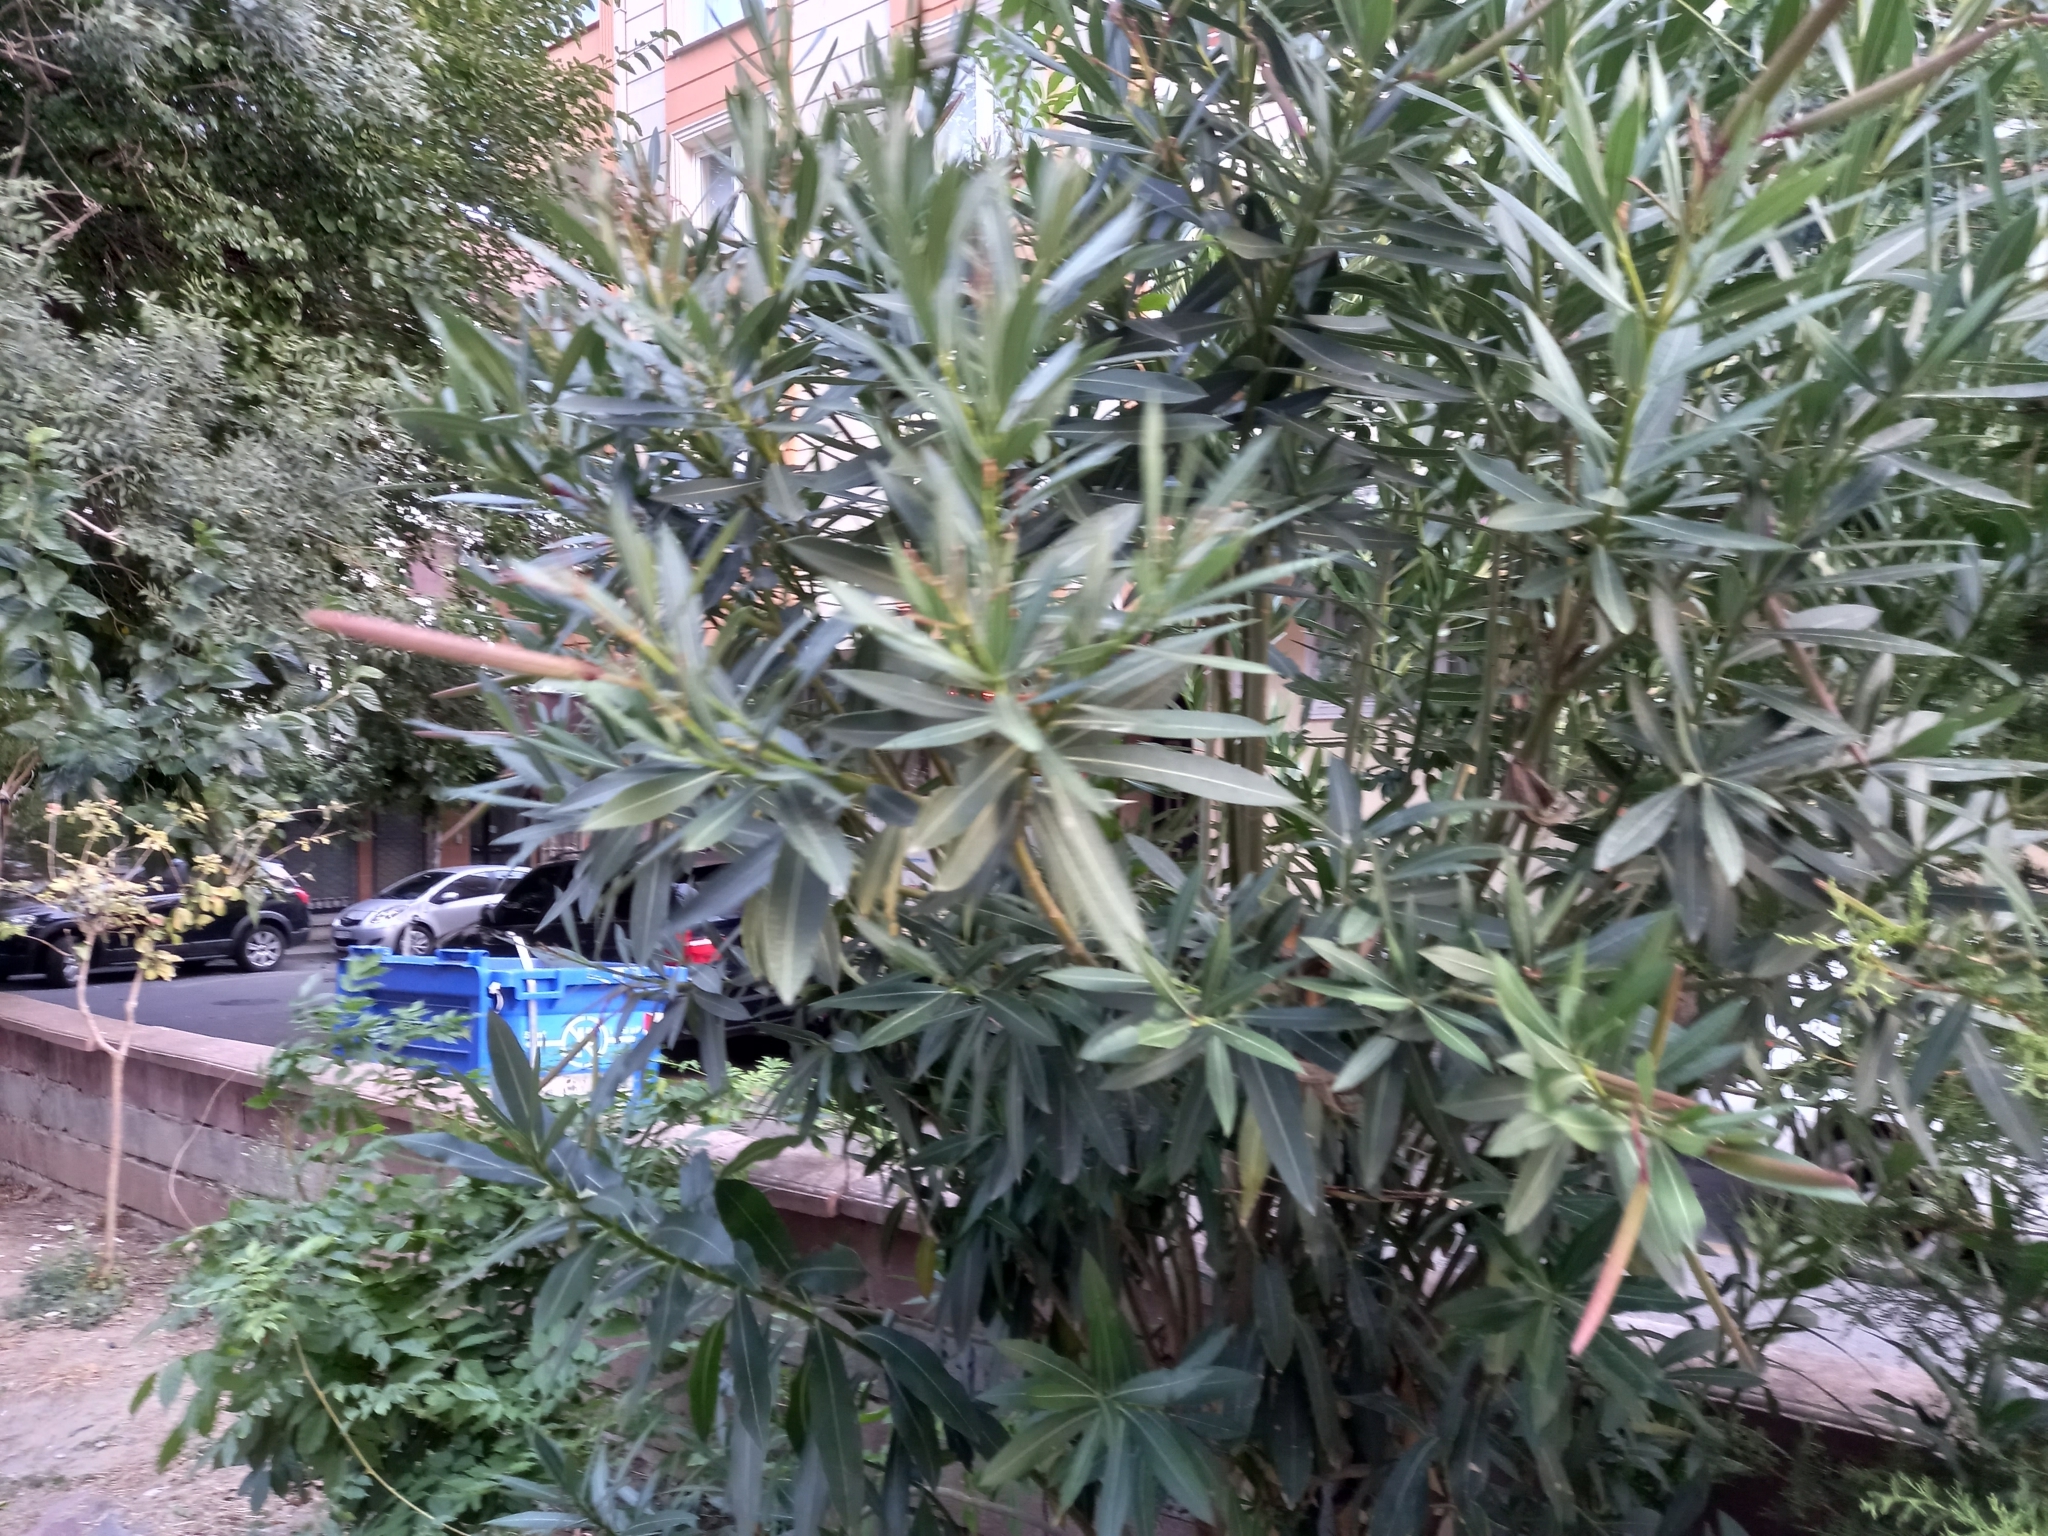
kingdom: Plantae
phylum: Tracheophyta
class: Magnoliopsida
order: Gentianales
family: Apocynaceae
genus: Nerium
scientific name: Nerium oleander
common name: Oleander
